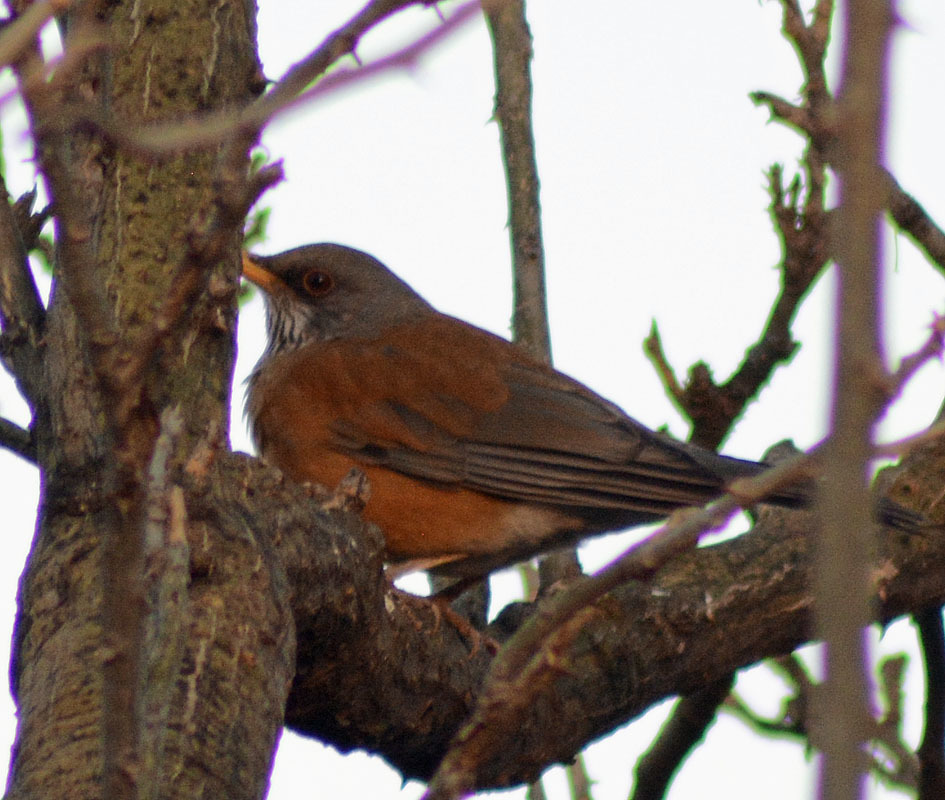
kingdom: Animalia
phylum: Chordata
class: Aves
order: Passeriformes
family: Turdidae
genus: Turdus
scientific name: Turdus rufopalliatus
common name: Rufous-backed robin
